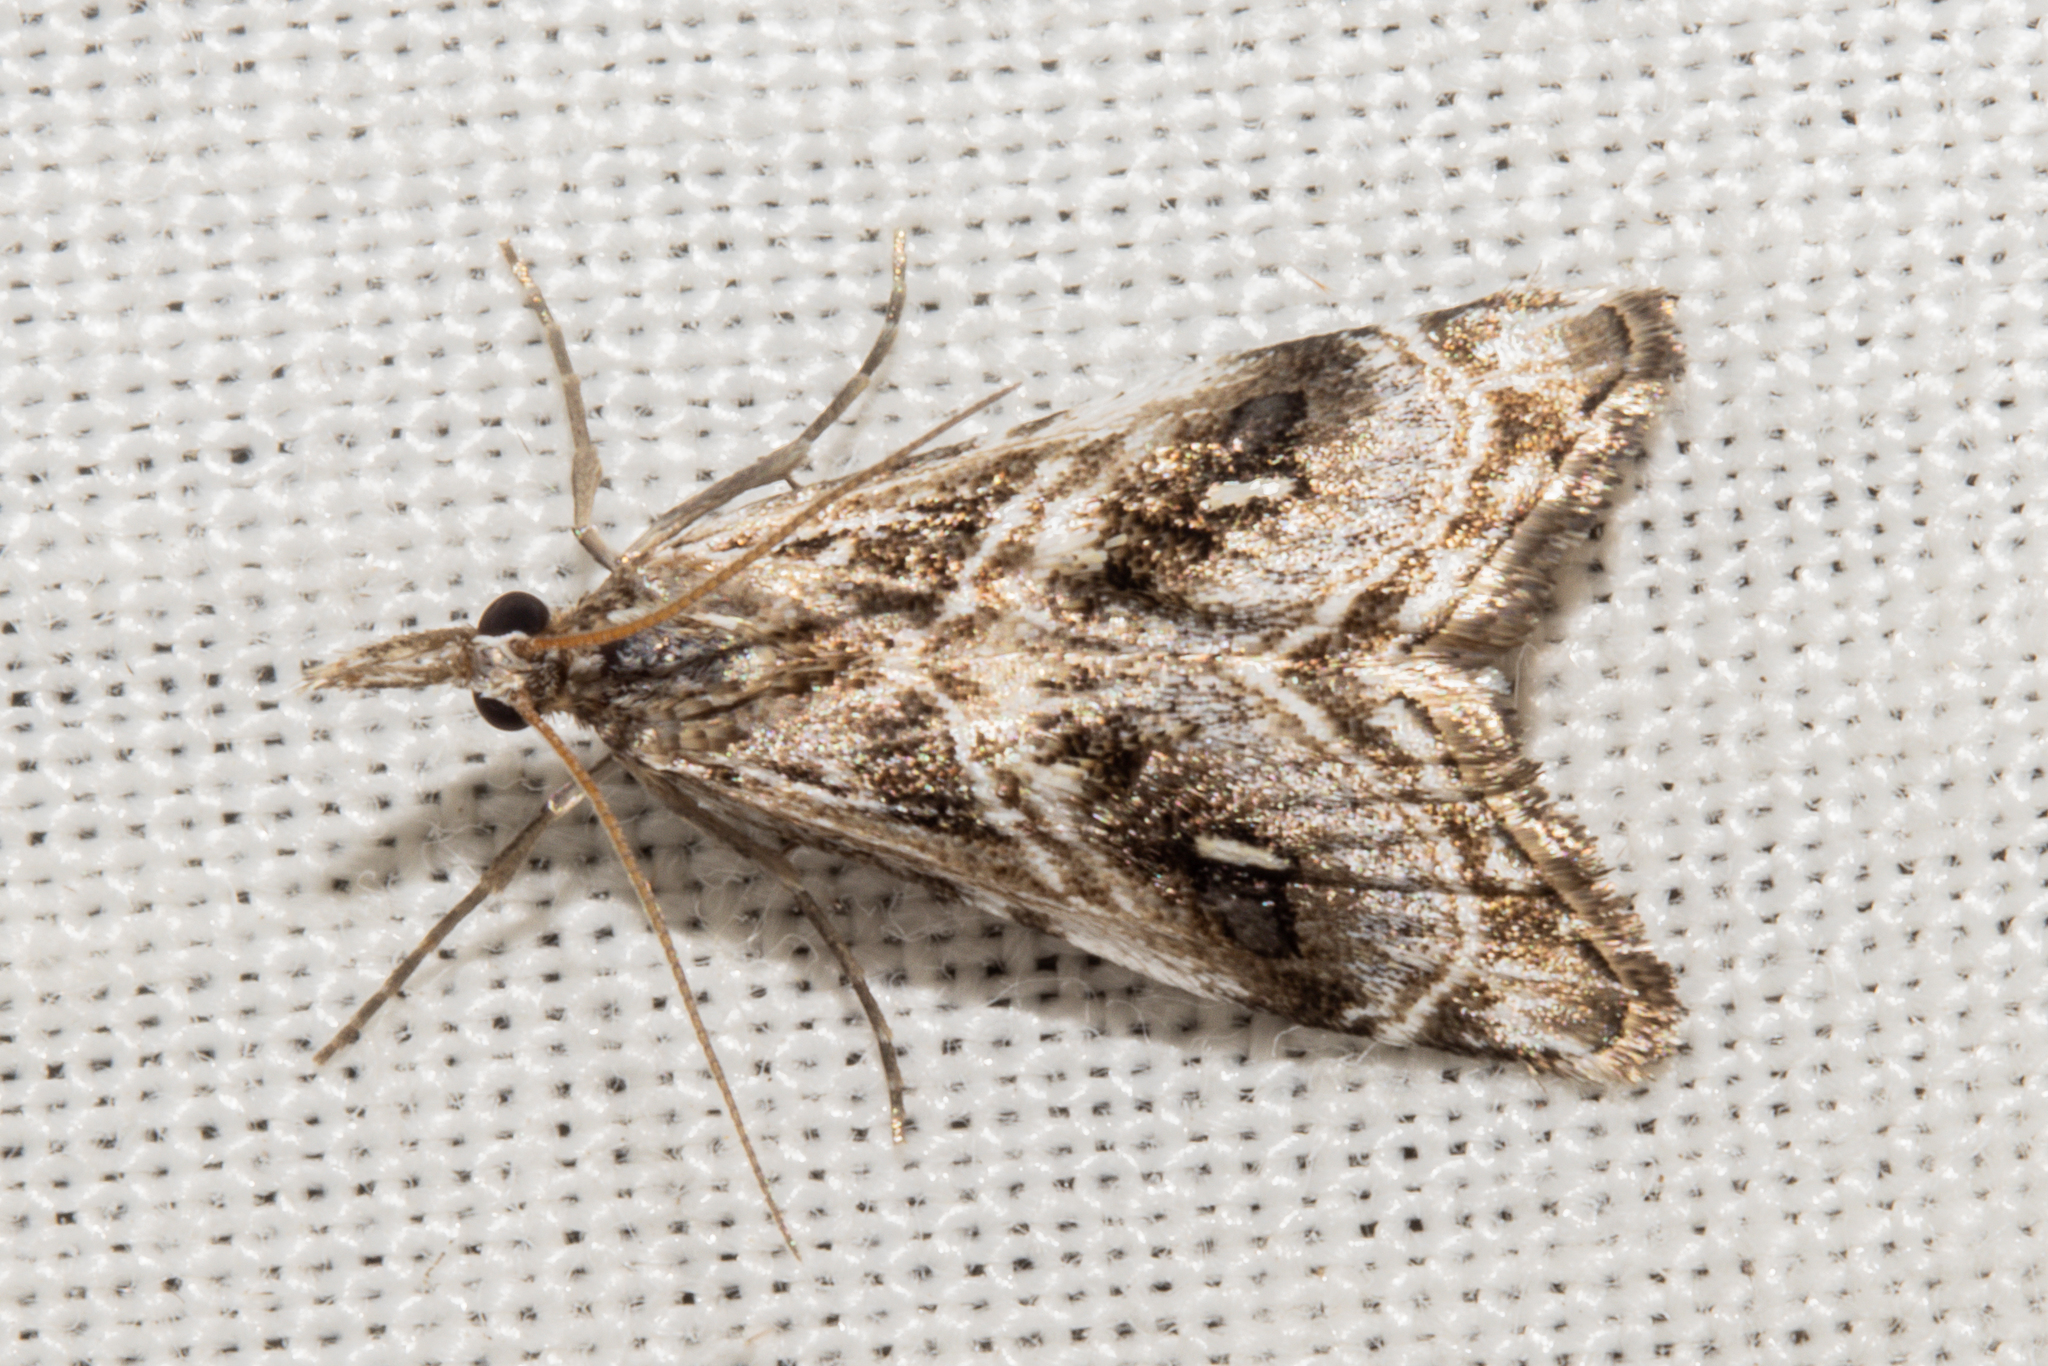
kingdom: Animalia
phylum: Arthropoda
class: Insecta
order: Lepidoptera
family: Crambidae
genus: Gadira
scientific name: Gadira acerella
